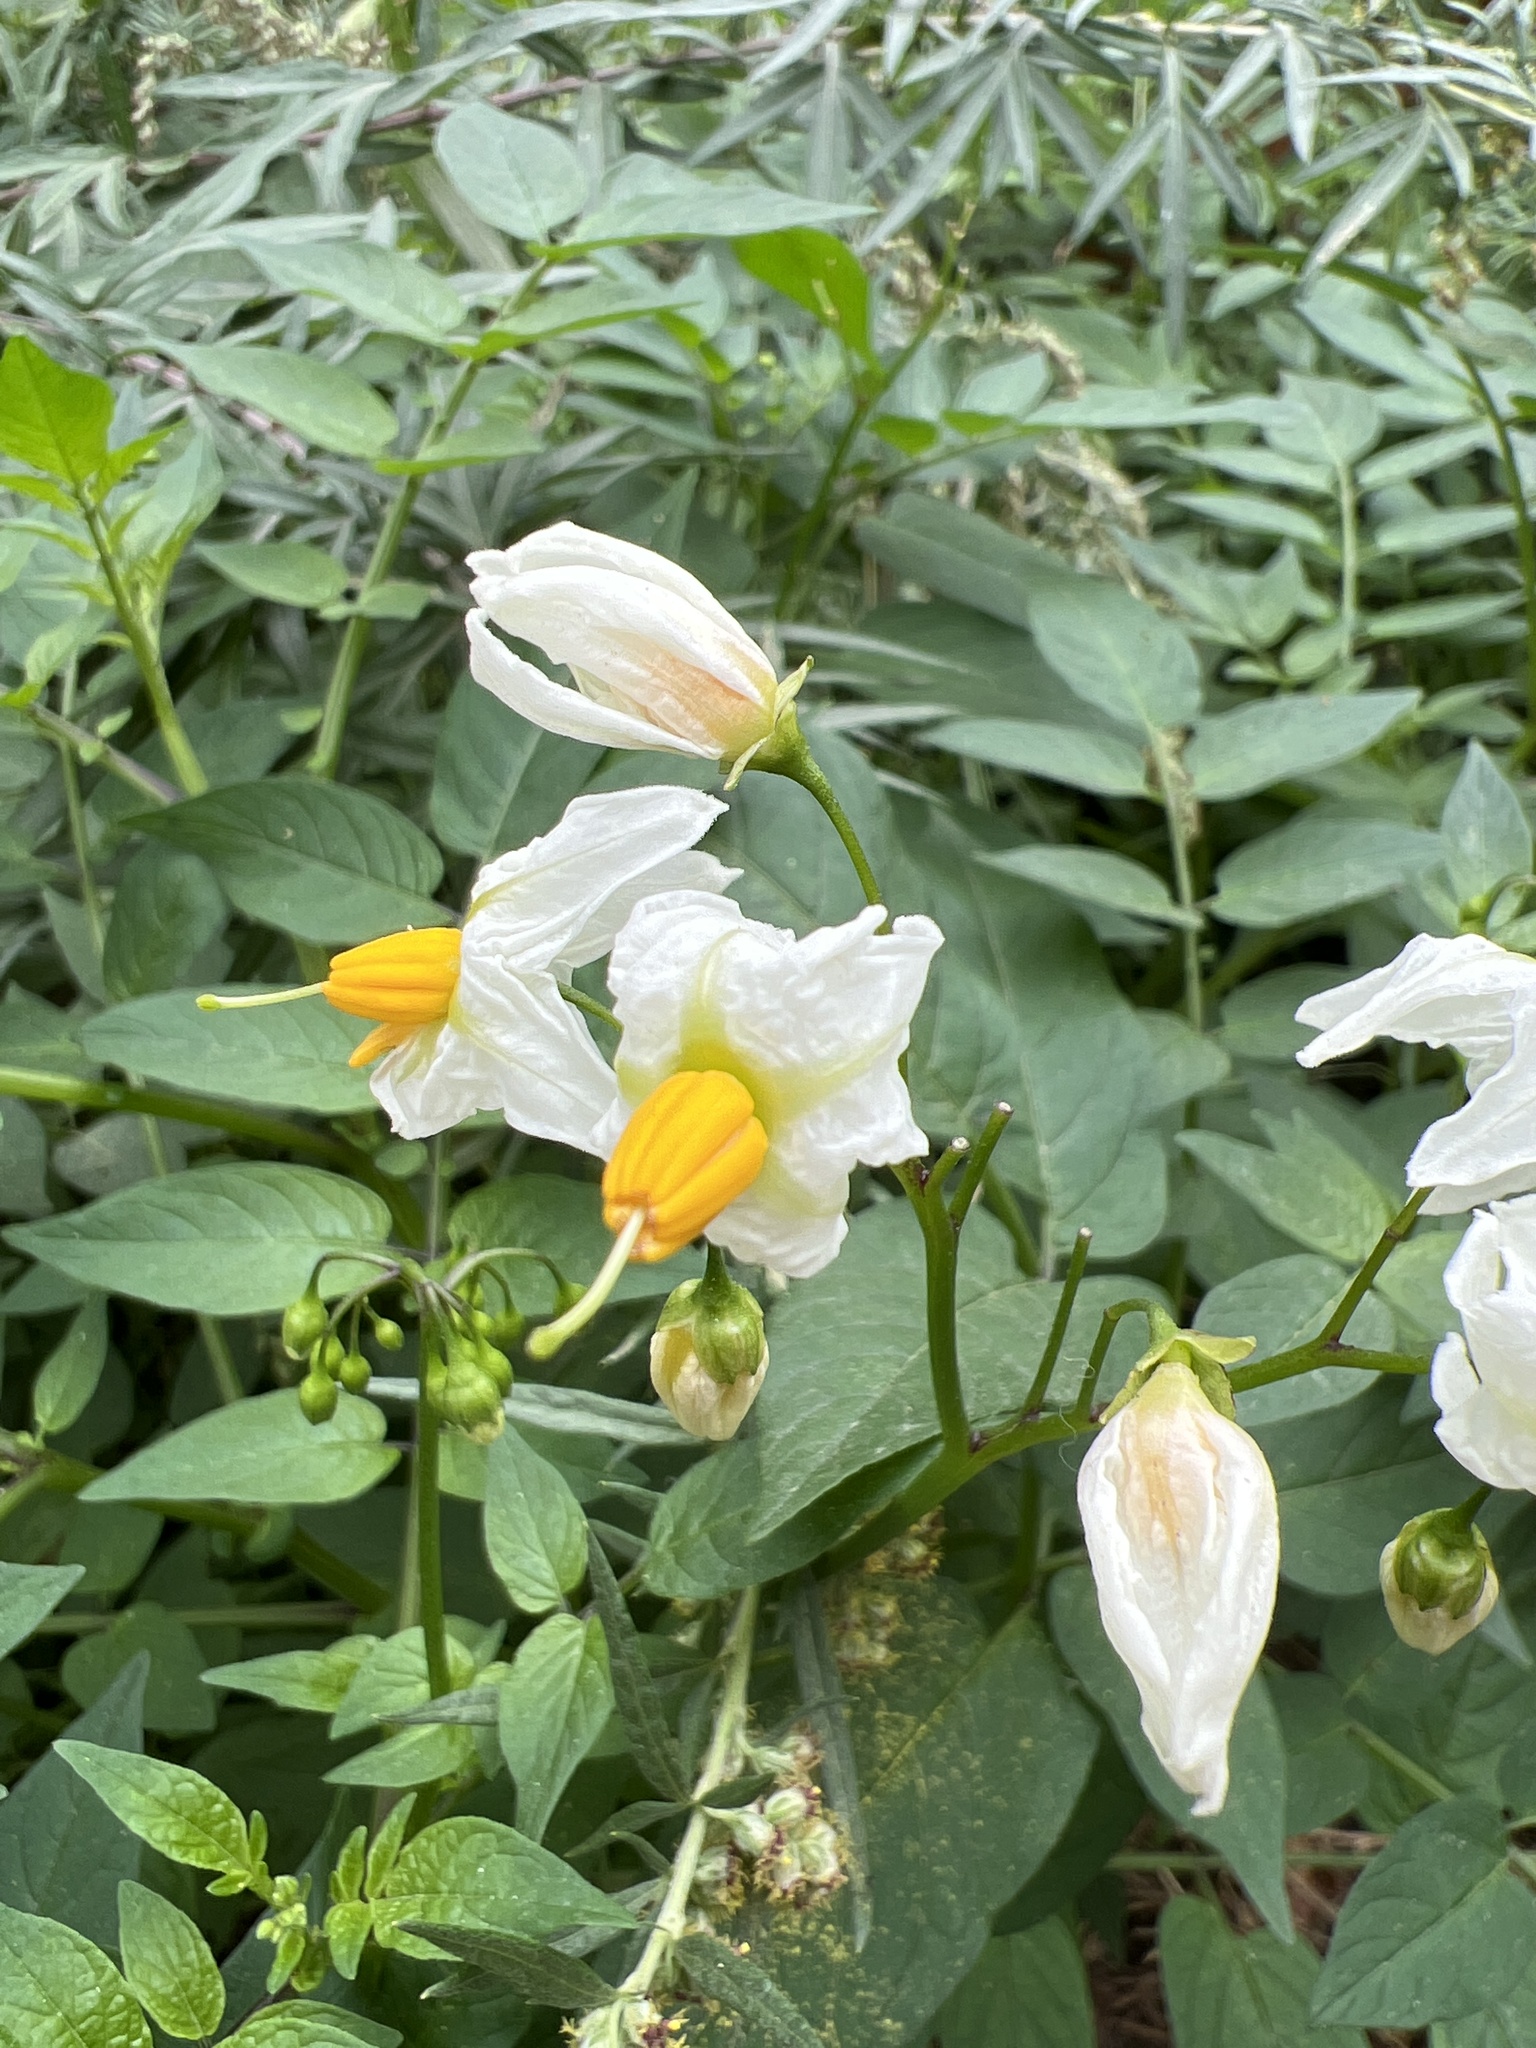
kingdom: Plantae
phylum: Tracheophyta
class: Magnoliopsida
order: Solanales
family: Solanaceae
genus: Solanum
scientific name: Solanum chacoense
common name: Chaco potato
